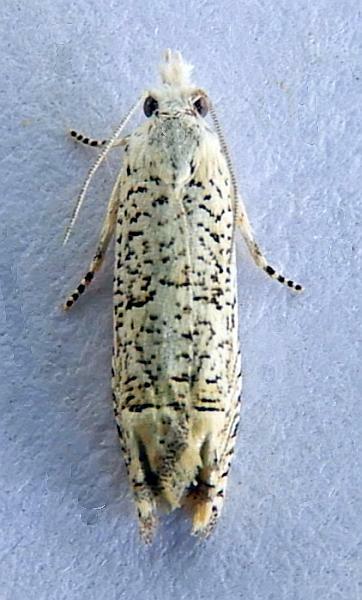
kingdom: Animalia
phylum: Arthropoda
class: Insecta
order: Lepidoptera
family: Tortricidae
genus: Eucosma
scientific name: Eucosma argutipunctana
